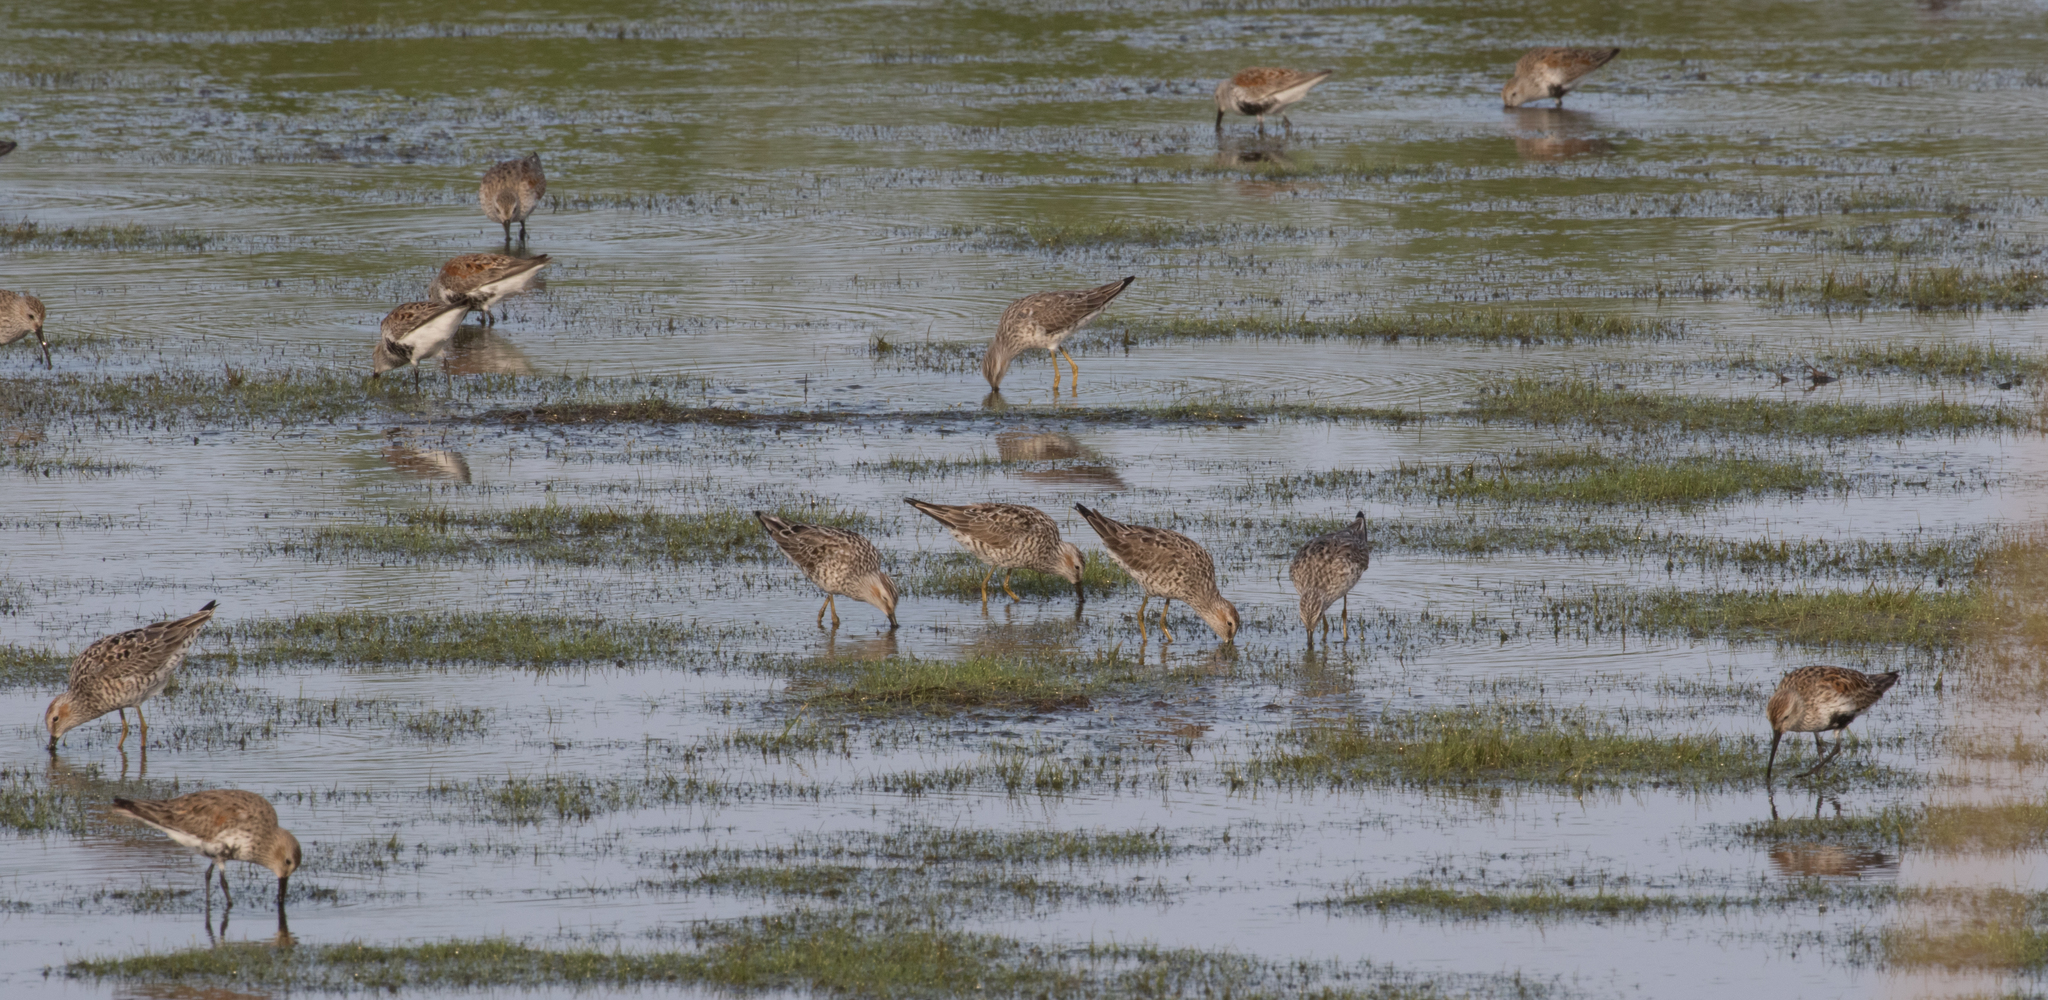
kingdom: Animalia
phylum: Chordata
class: Aves
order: Charadriiformes
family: Scolopacidae
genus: Calidris
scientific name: Calidris himantopus
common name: Stilt sandpiper
